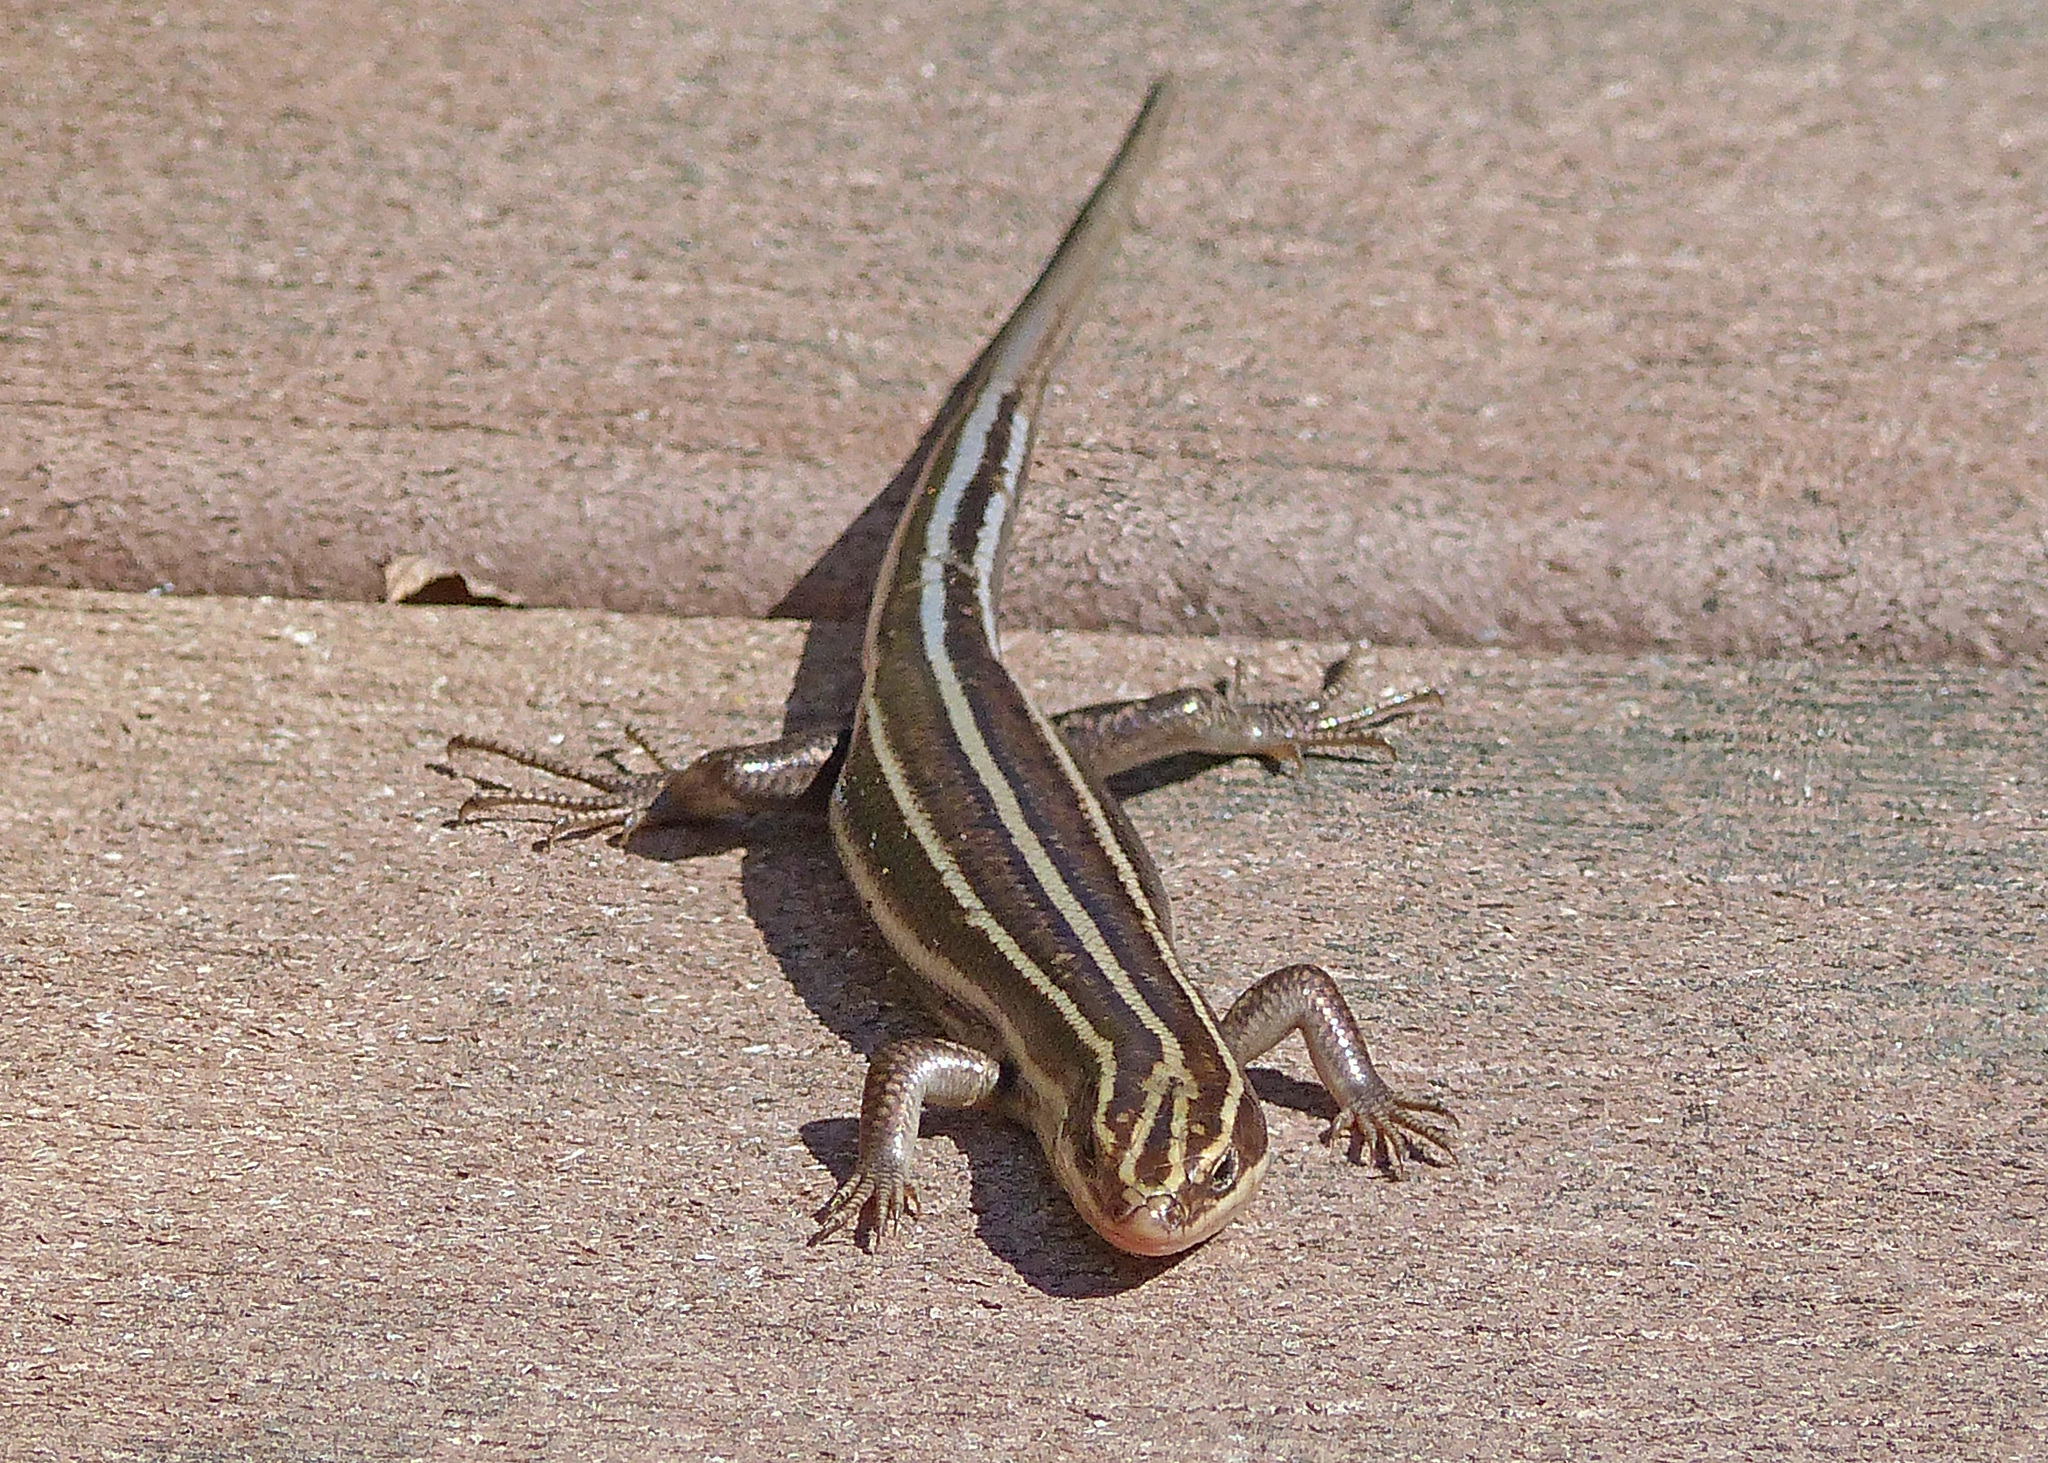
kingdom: Animalia
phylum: Chordata
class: Squamata
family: Scincidae
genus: Plestiodon
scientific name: Plestiodon fasciatus
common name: Five-lined skink
